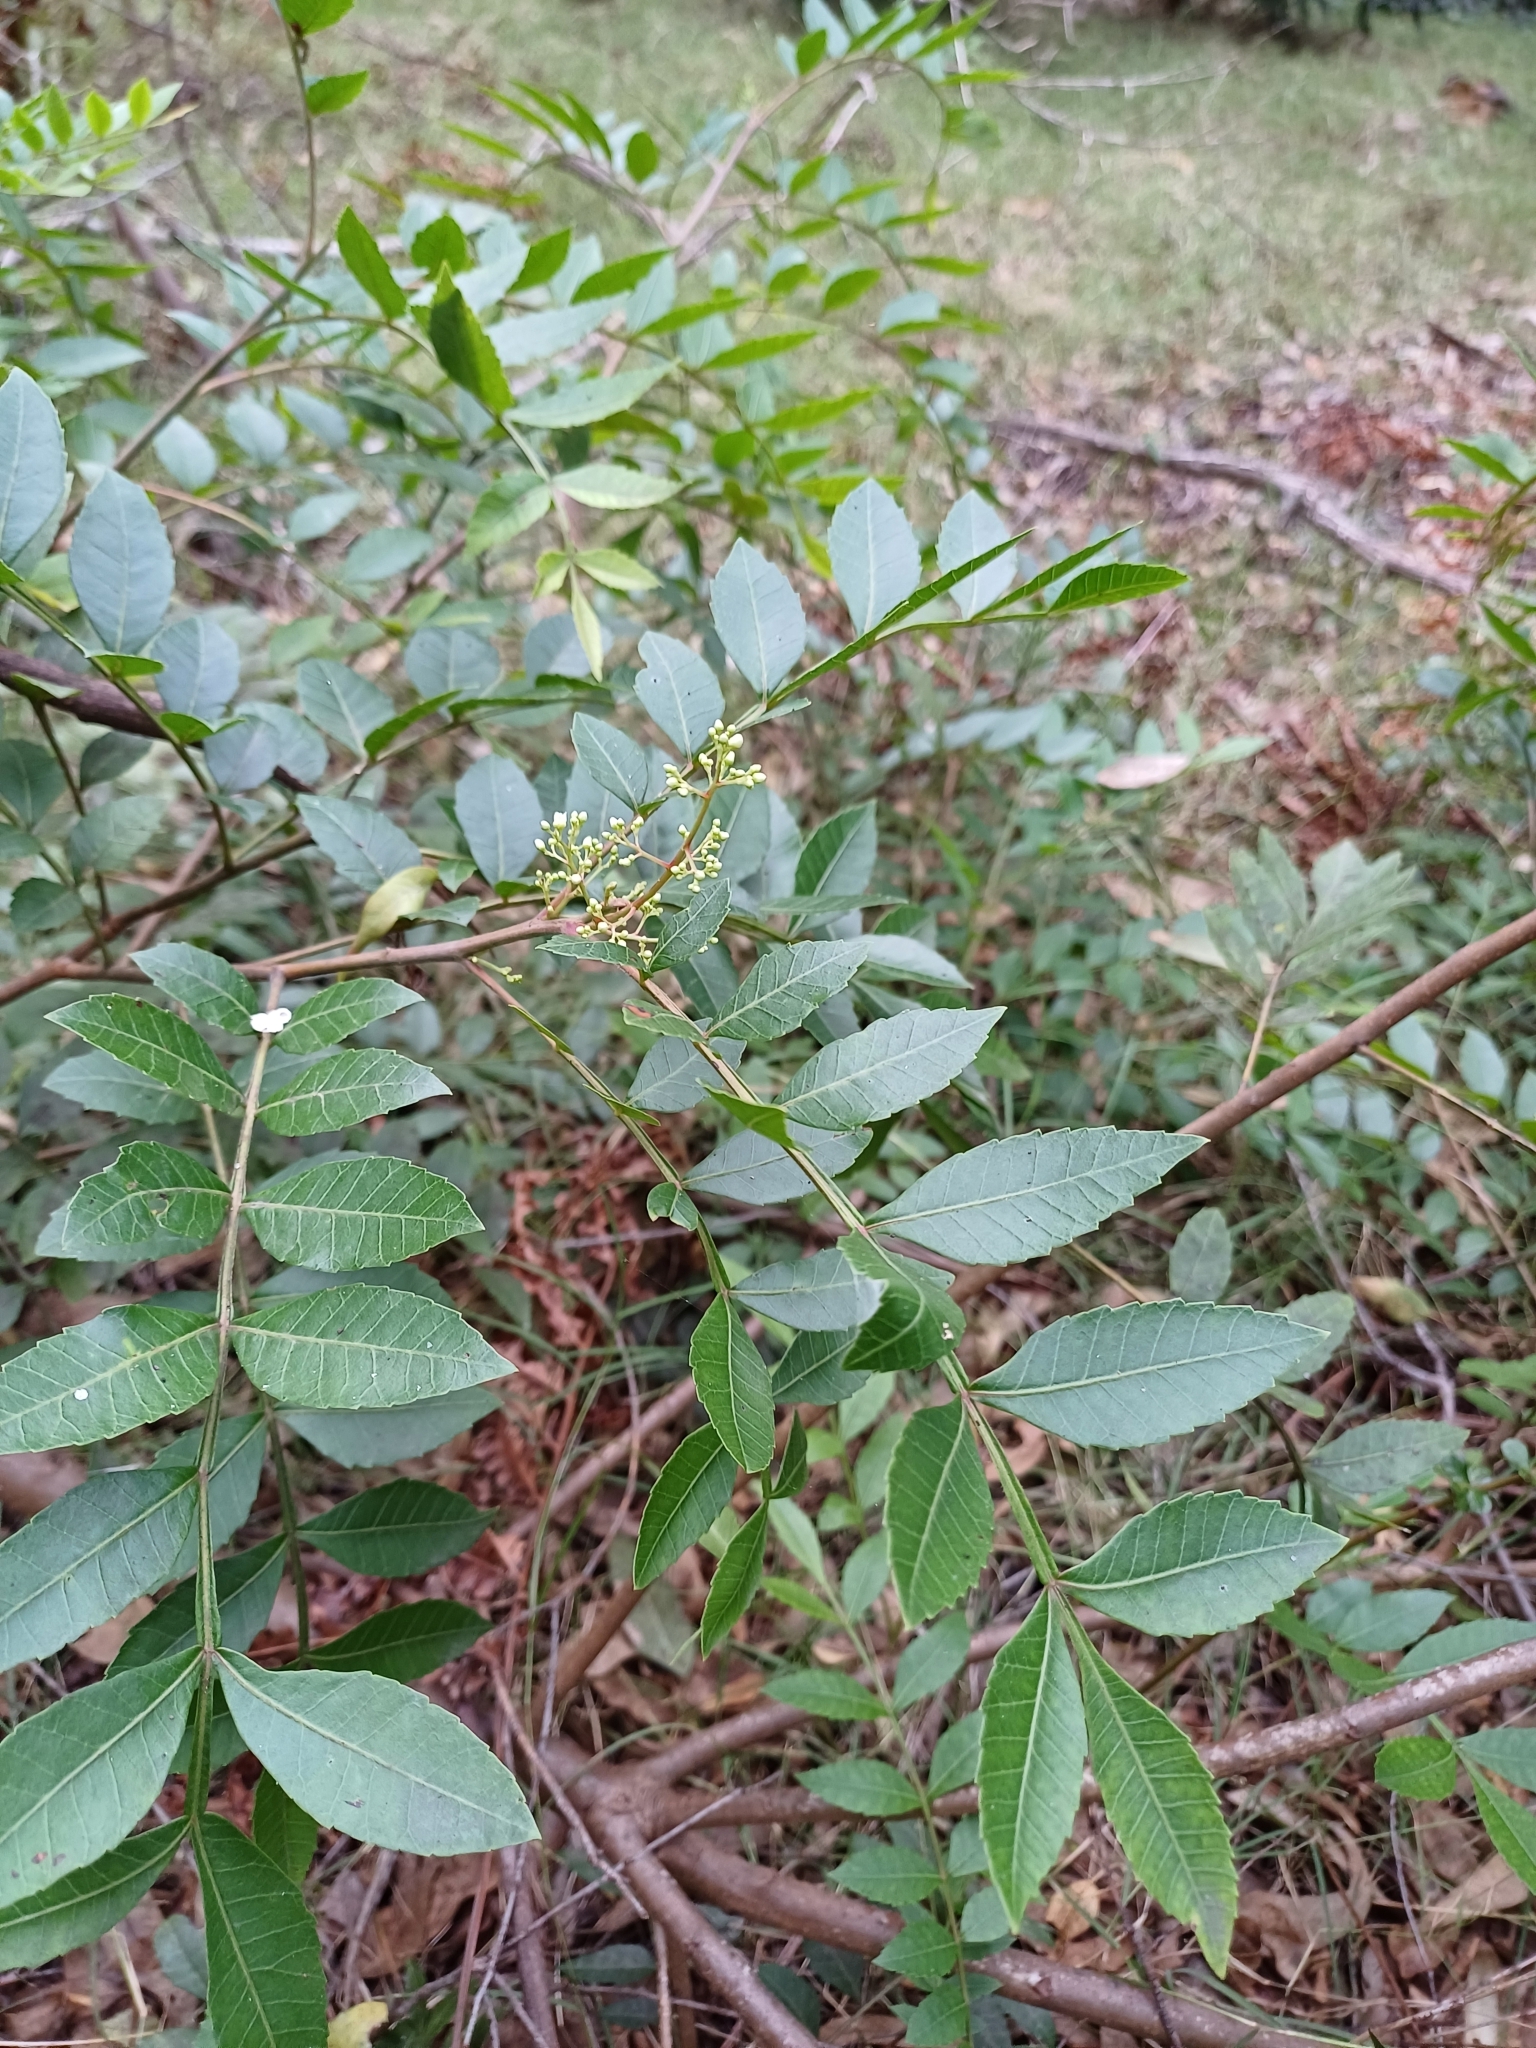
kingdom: Plantae
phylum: Tracheophyta
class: Magnoliopsida
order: Sapindales
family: Anacardiaceae
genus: Schinus
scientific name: Schinus terebinthifolia
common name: Brazilian peppertree
